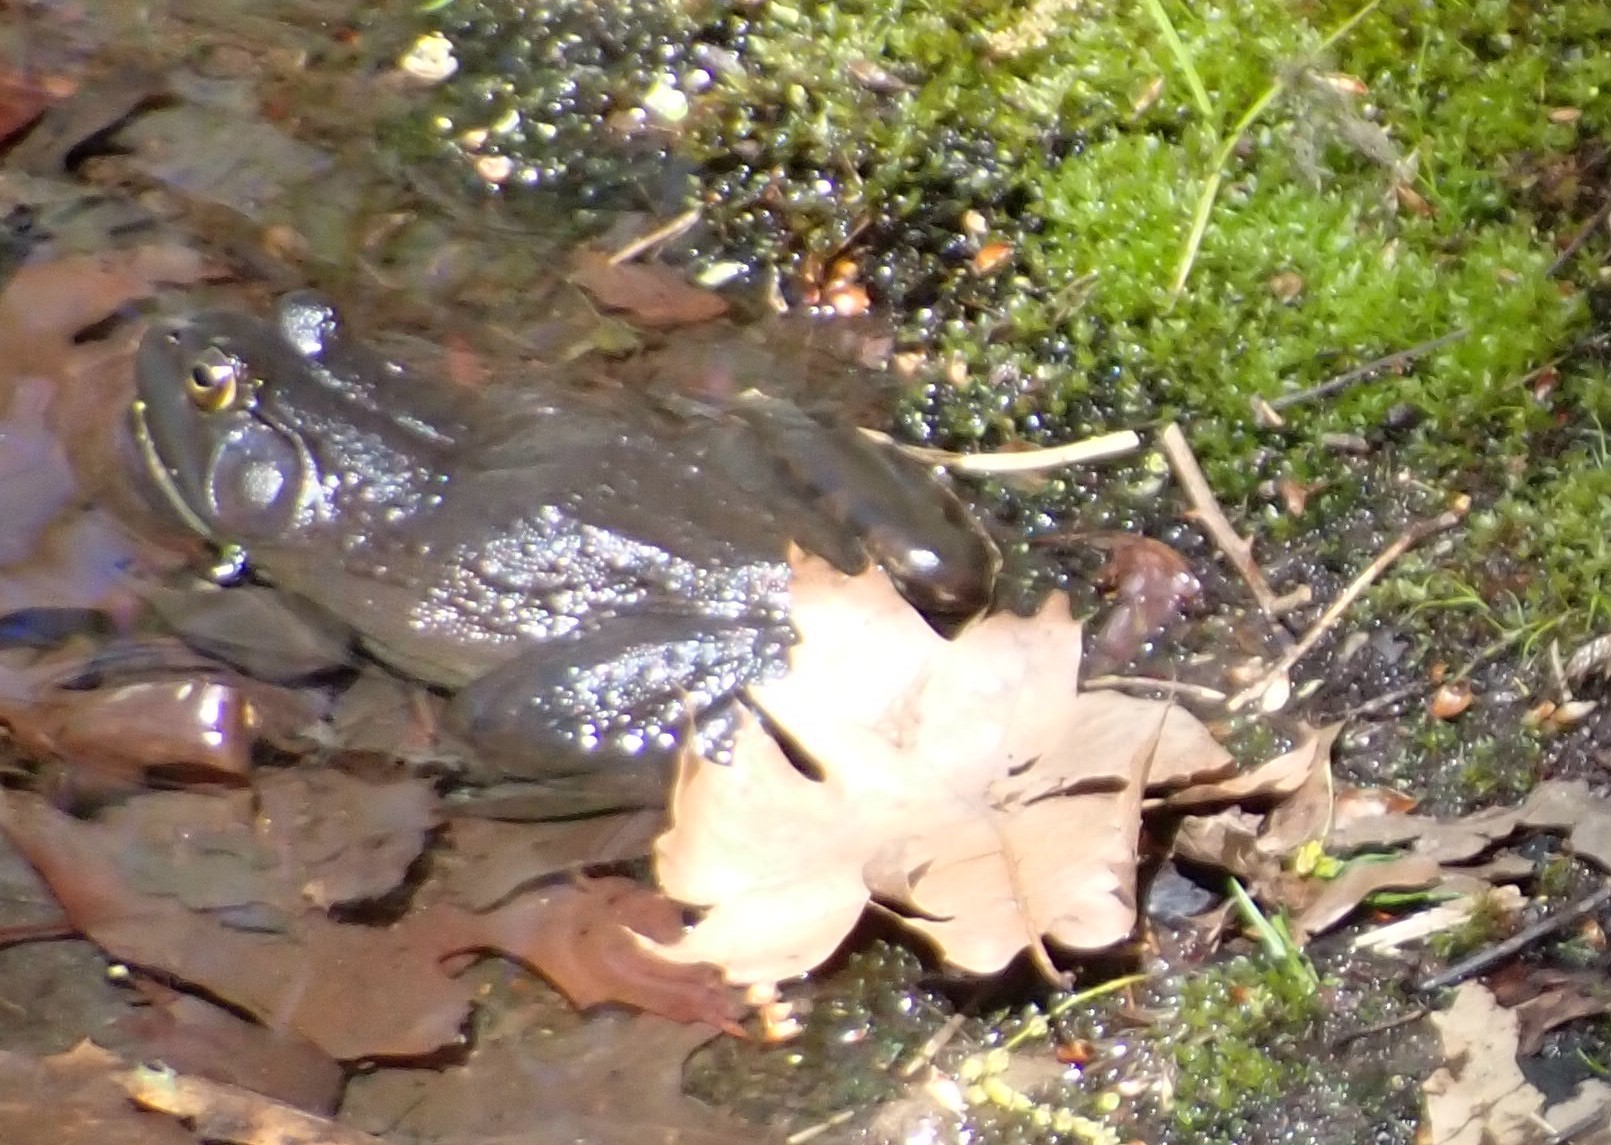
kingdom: Animalia
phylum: Chordata
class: Amphibia
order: Anura
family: Ranidae
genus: Lithobates
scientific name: Lithobates catesbeianus
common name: American bullfrog
